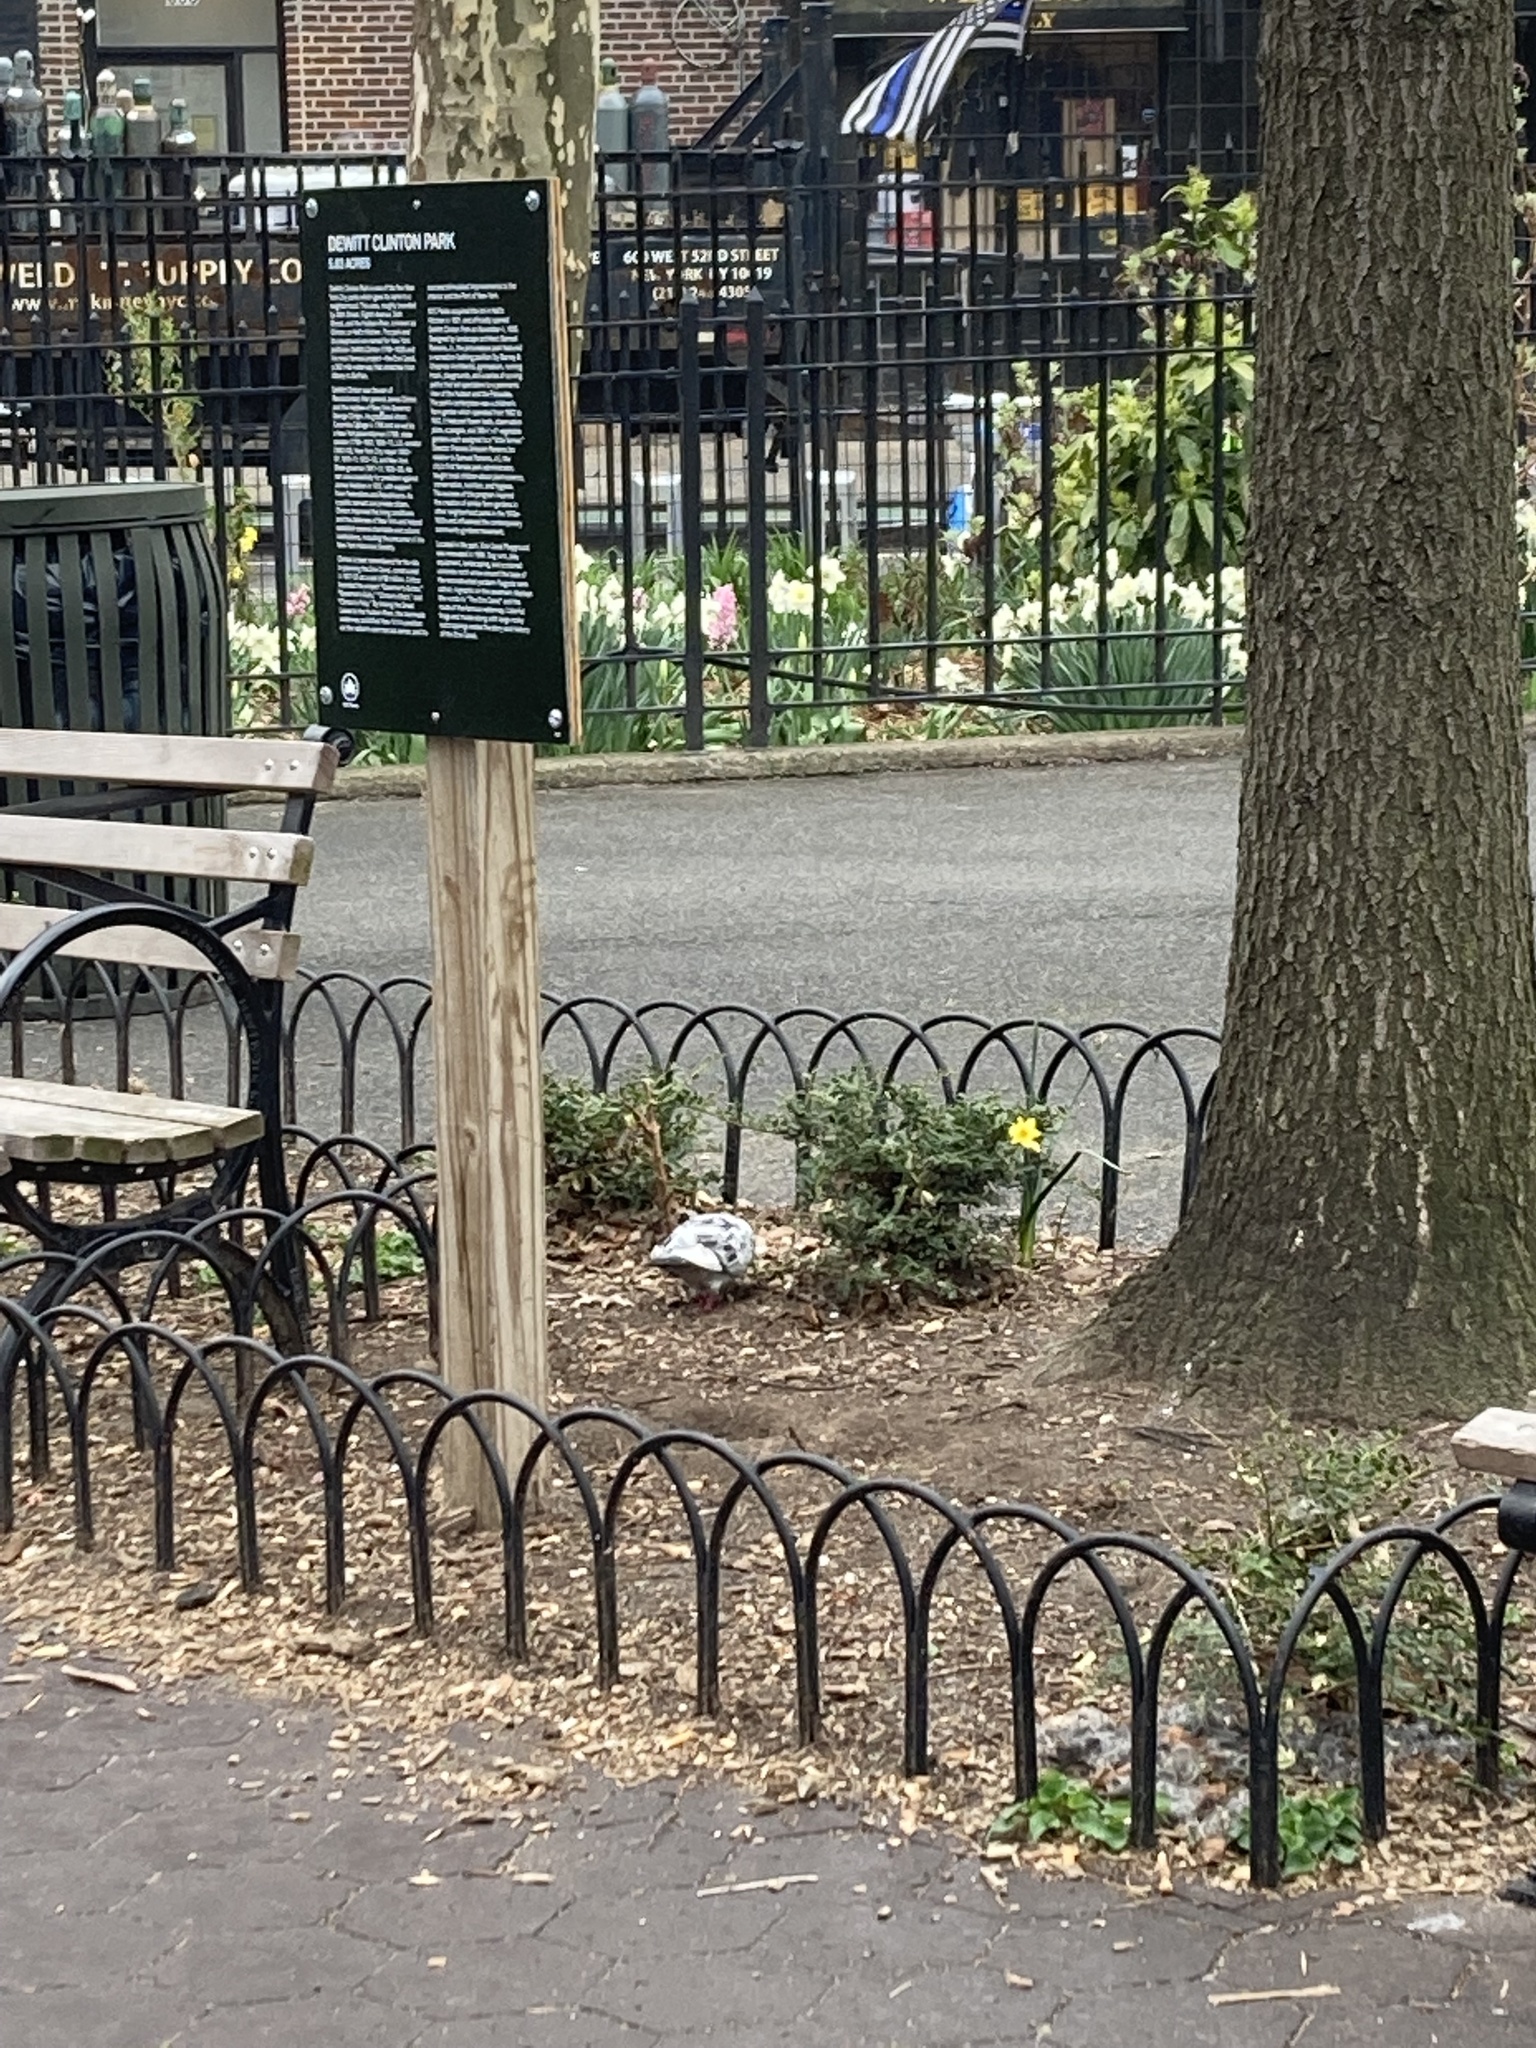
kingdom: Animalia
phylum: Chordata
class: Aves
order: Columbiformes
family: Columbidae
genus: Columba
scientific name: Columba livia
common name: Rock pigeon
